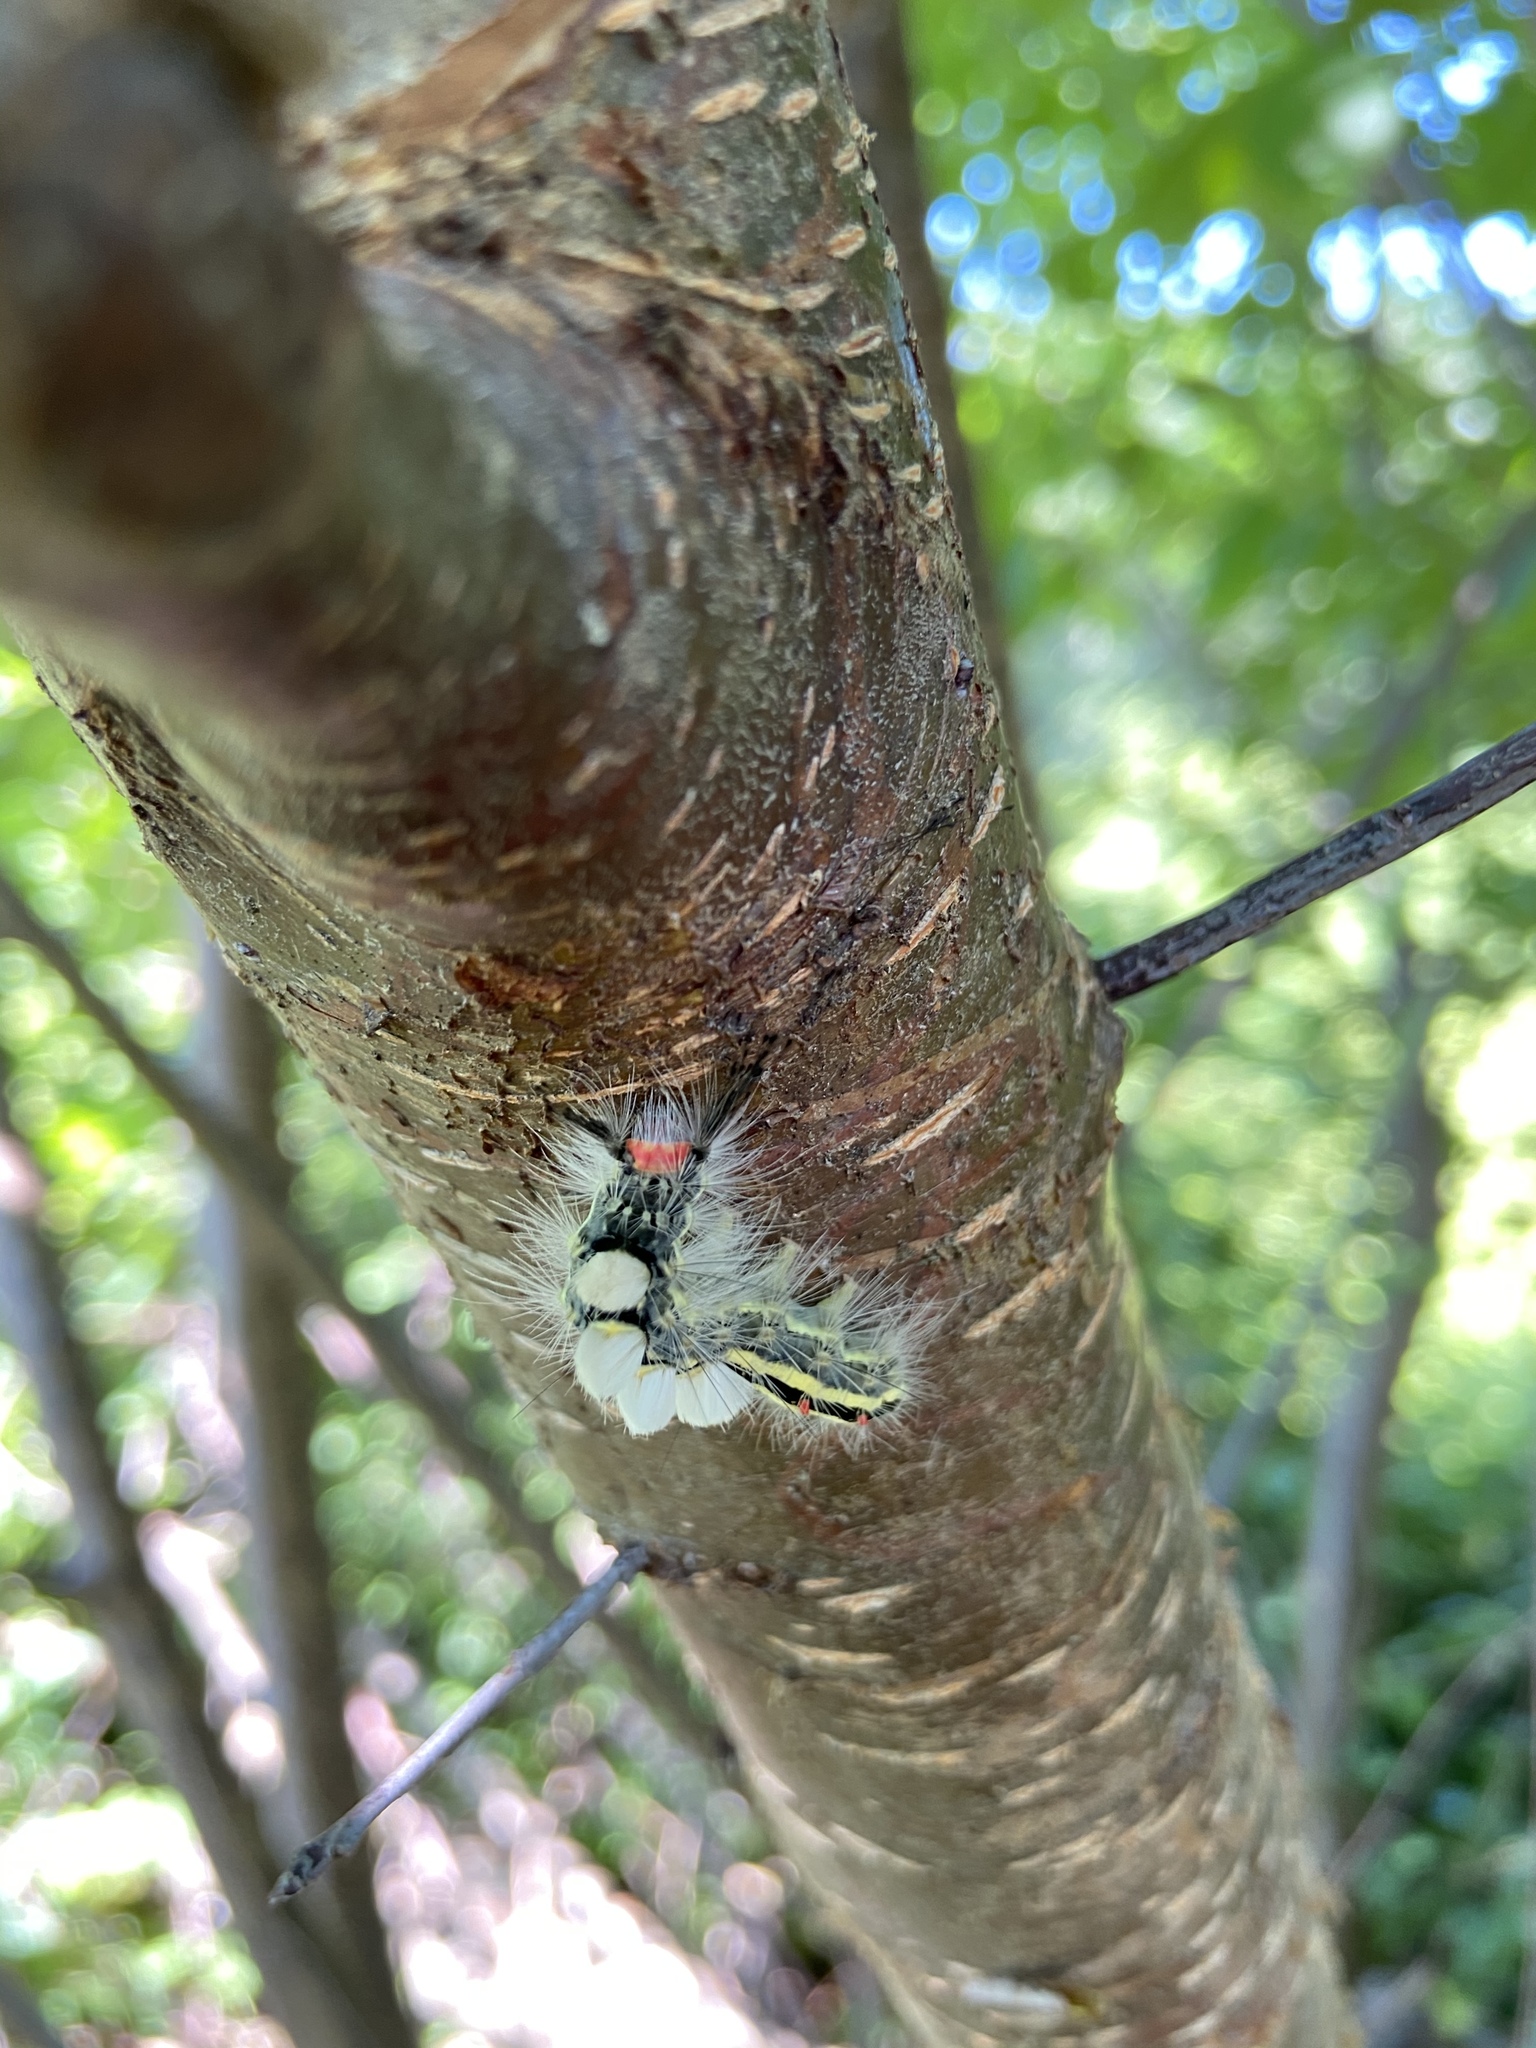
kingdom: Animalia
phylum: Arthropoda
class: Insecta
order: Lepidoptera
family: Erebidae
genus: Orgyia
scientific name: Orgyia leucostigma
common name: White-marked tussock moth
